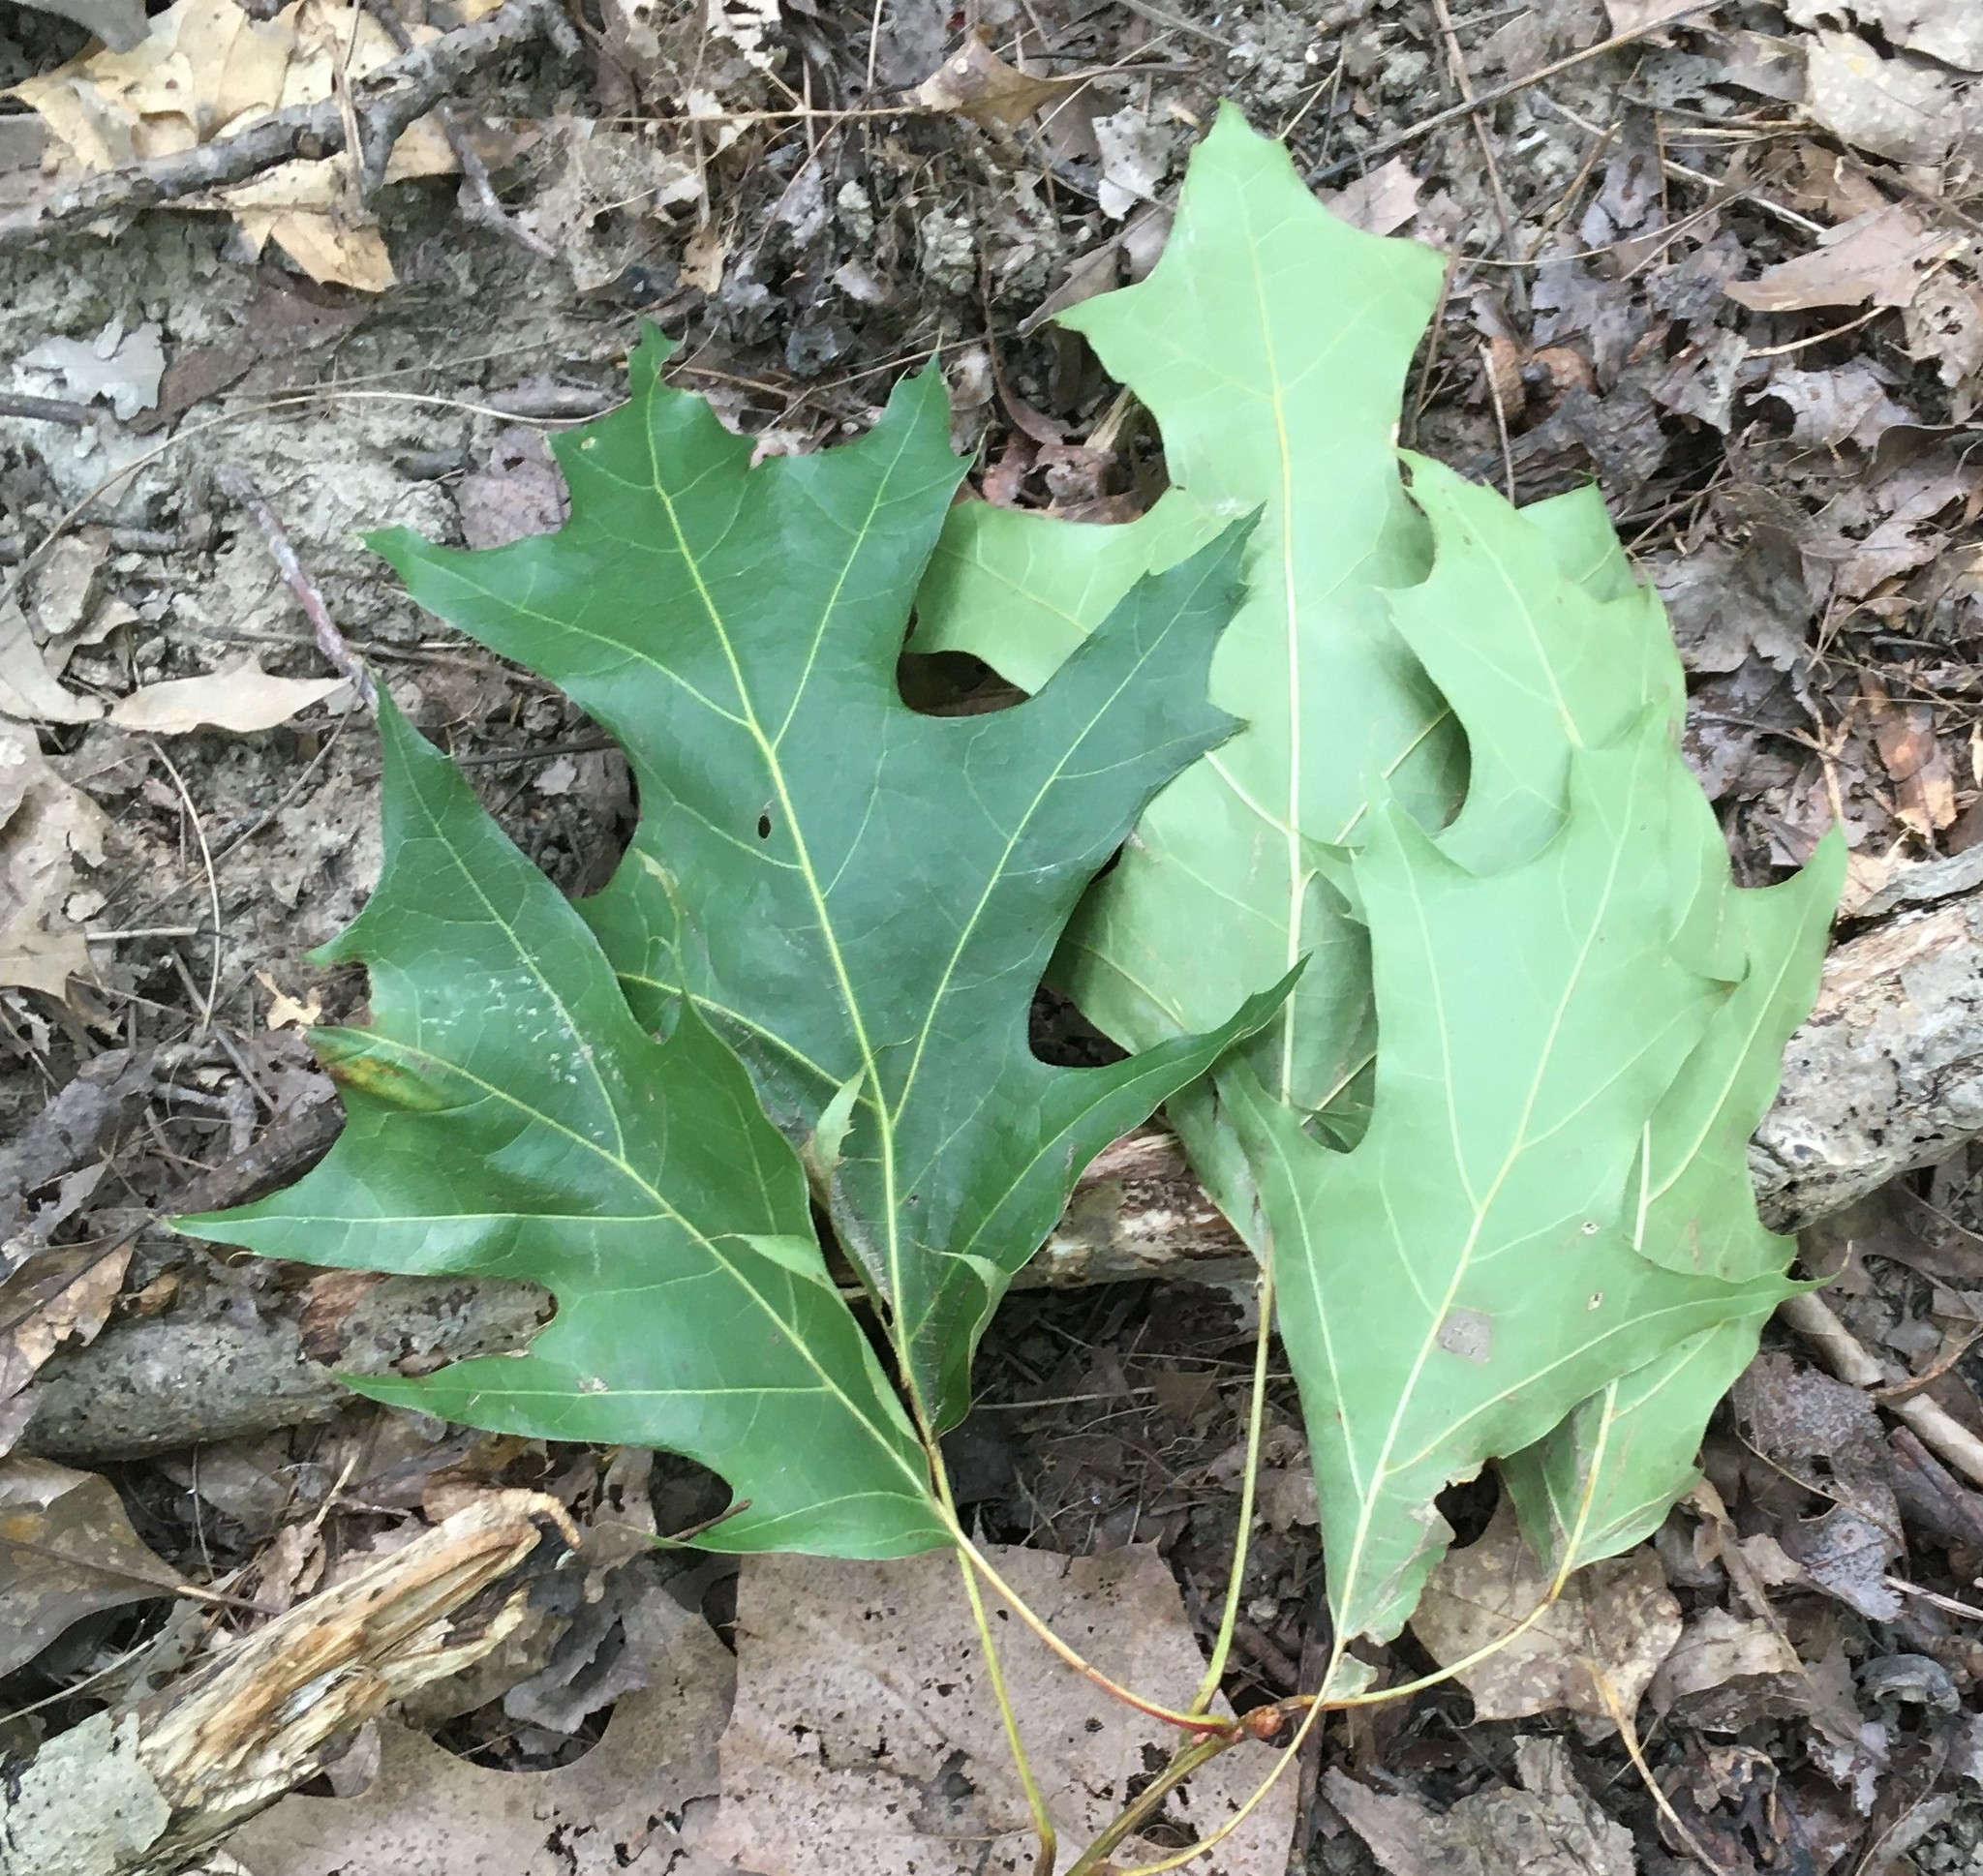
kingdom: Plantae
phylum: Tracheophyta
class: Magnoliopsida
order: Fagales
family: Fagaceae
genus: Quercus
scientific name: Quercus coccinea
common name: Scarlet oak
